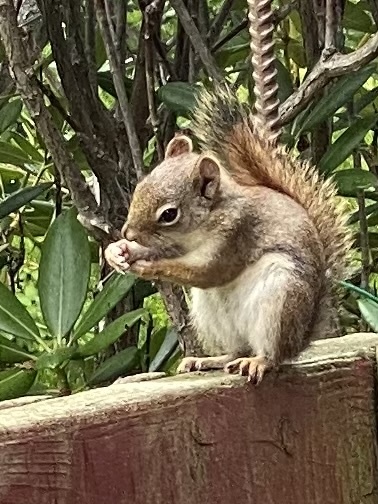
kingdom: Animalia
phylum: Chordata
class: Mammalia
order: Rodentia
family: Sciuridae
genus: Tamiasciurus
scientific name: Tamiasciurus hudsonicus
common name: Red squirrel
